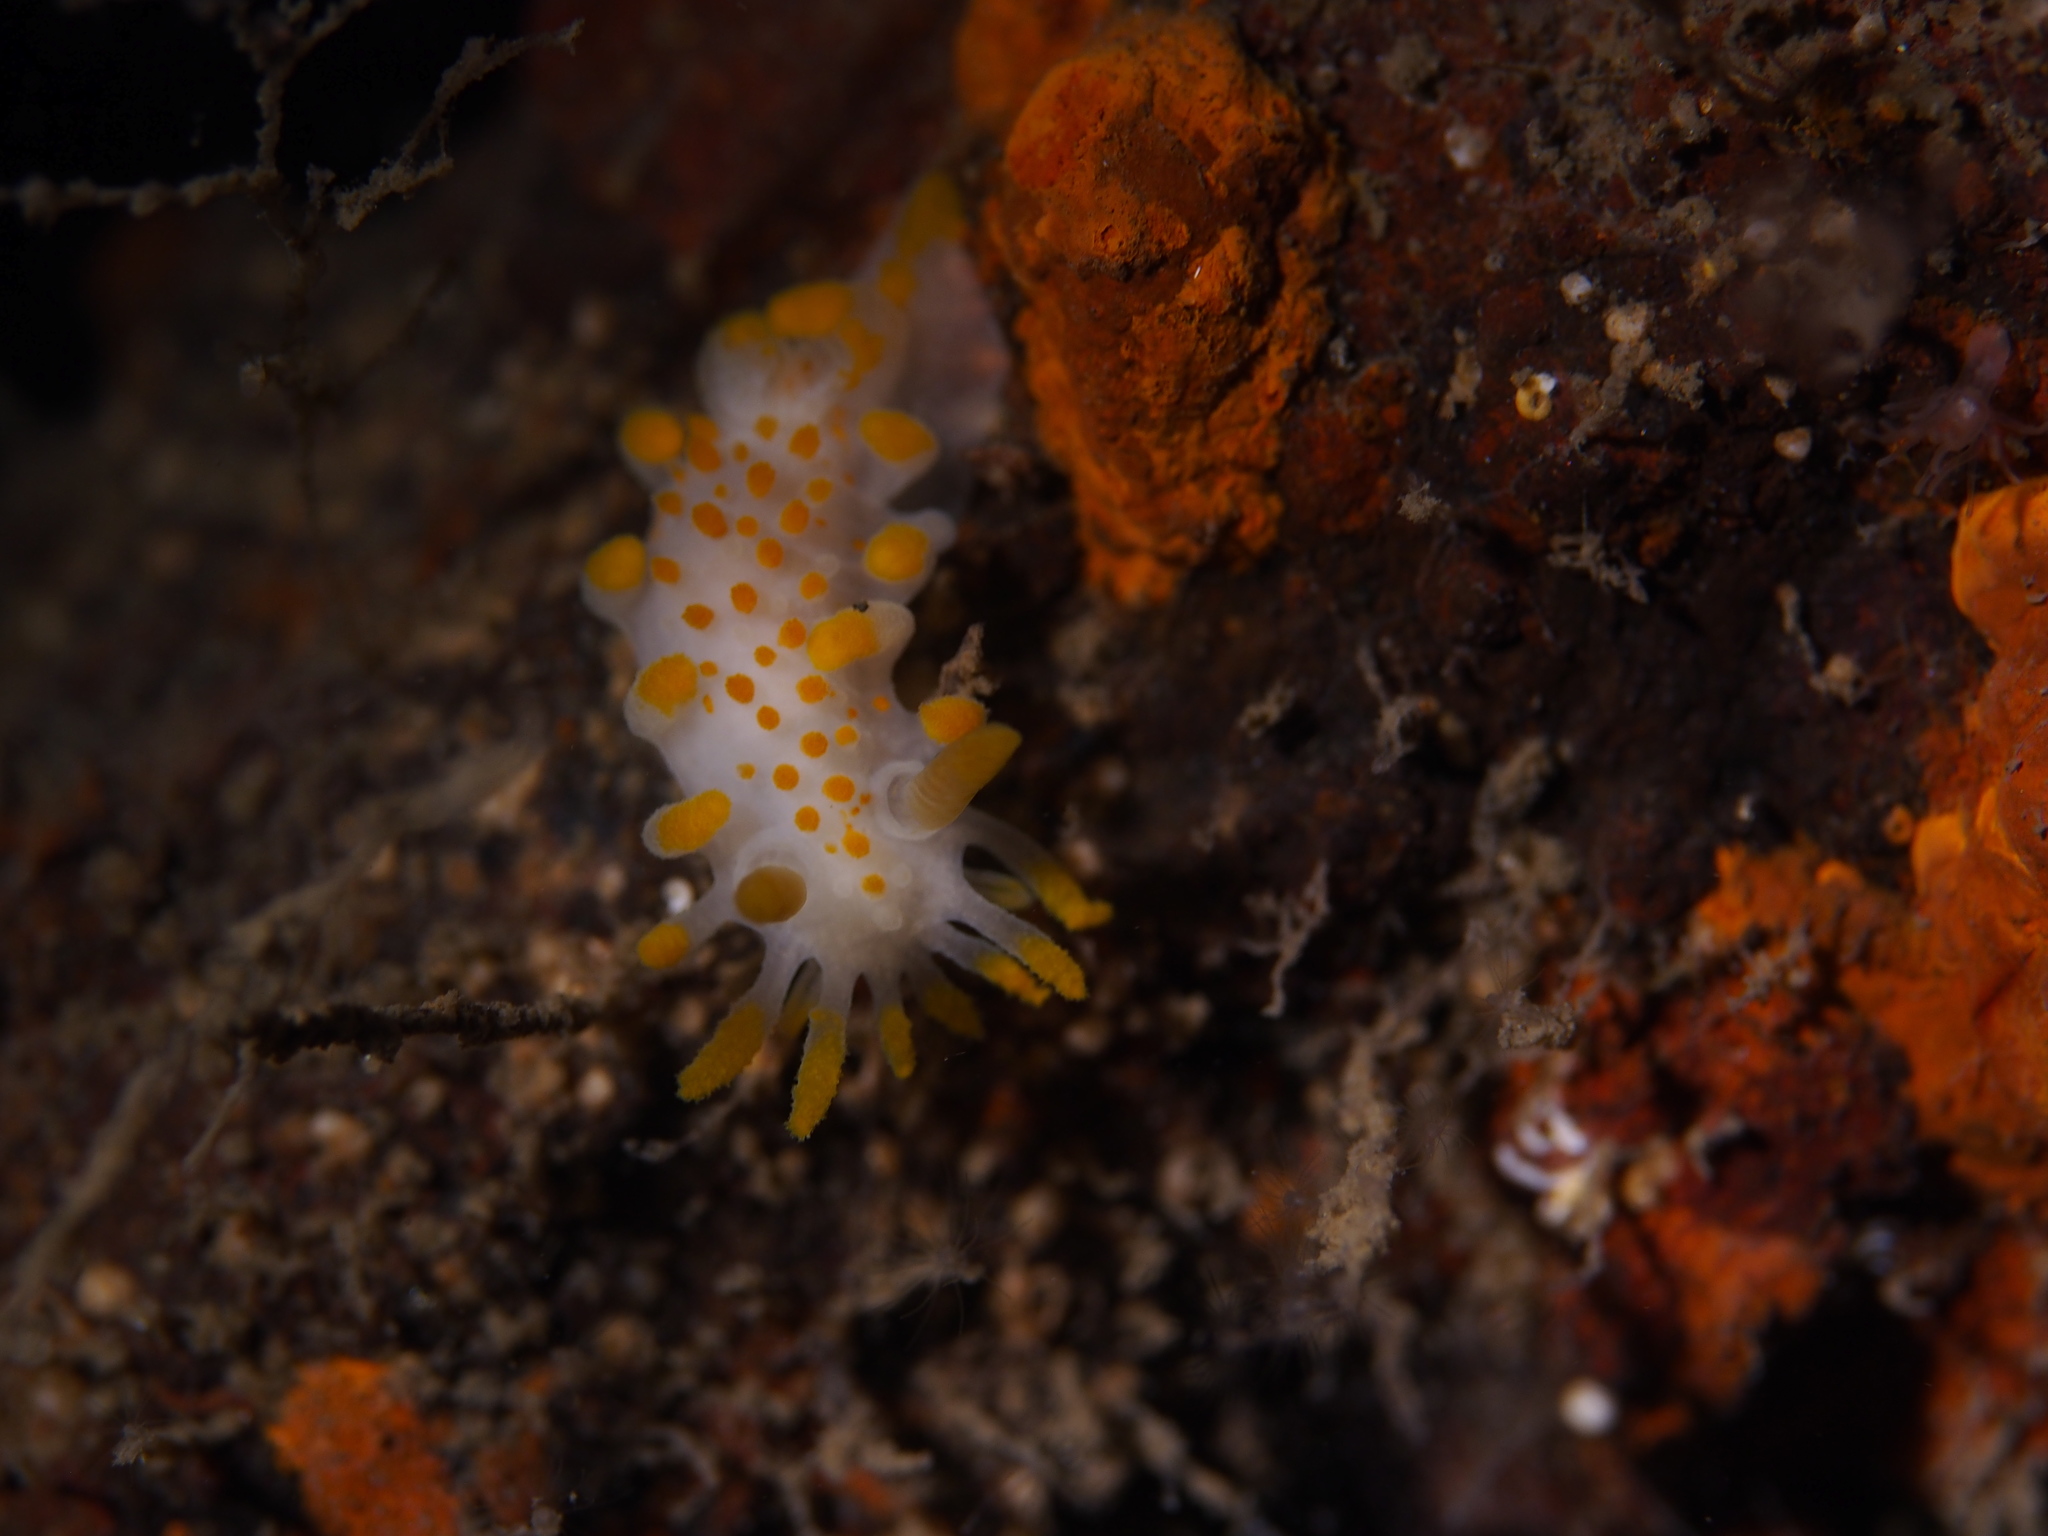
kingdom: Animalia
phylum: Mollusca
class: Gastropoda
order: Nudibranchia
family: Polyceridae
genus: Limacia
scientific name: Limacia clavigera
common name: Orange-clubbed sea slug
